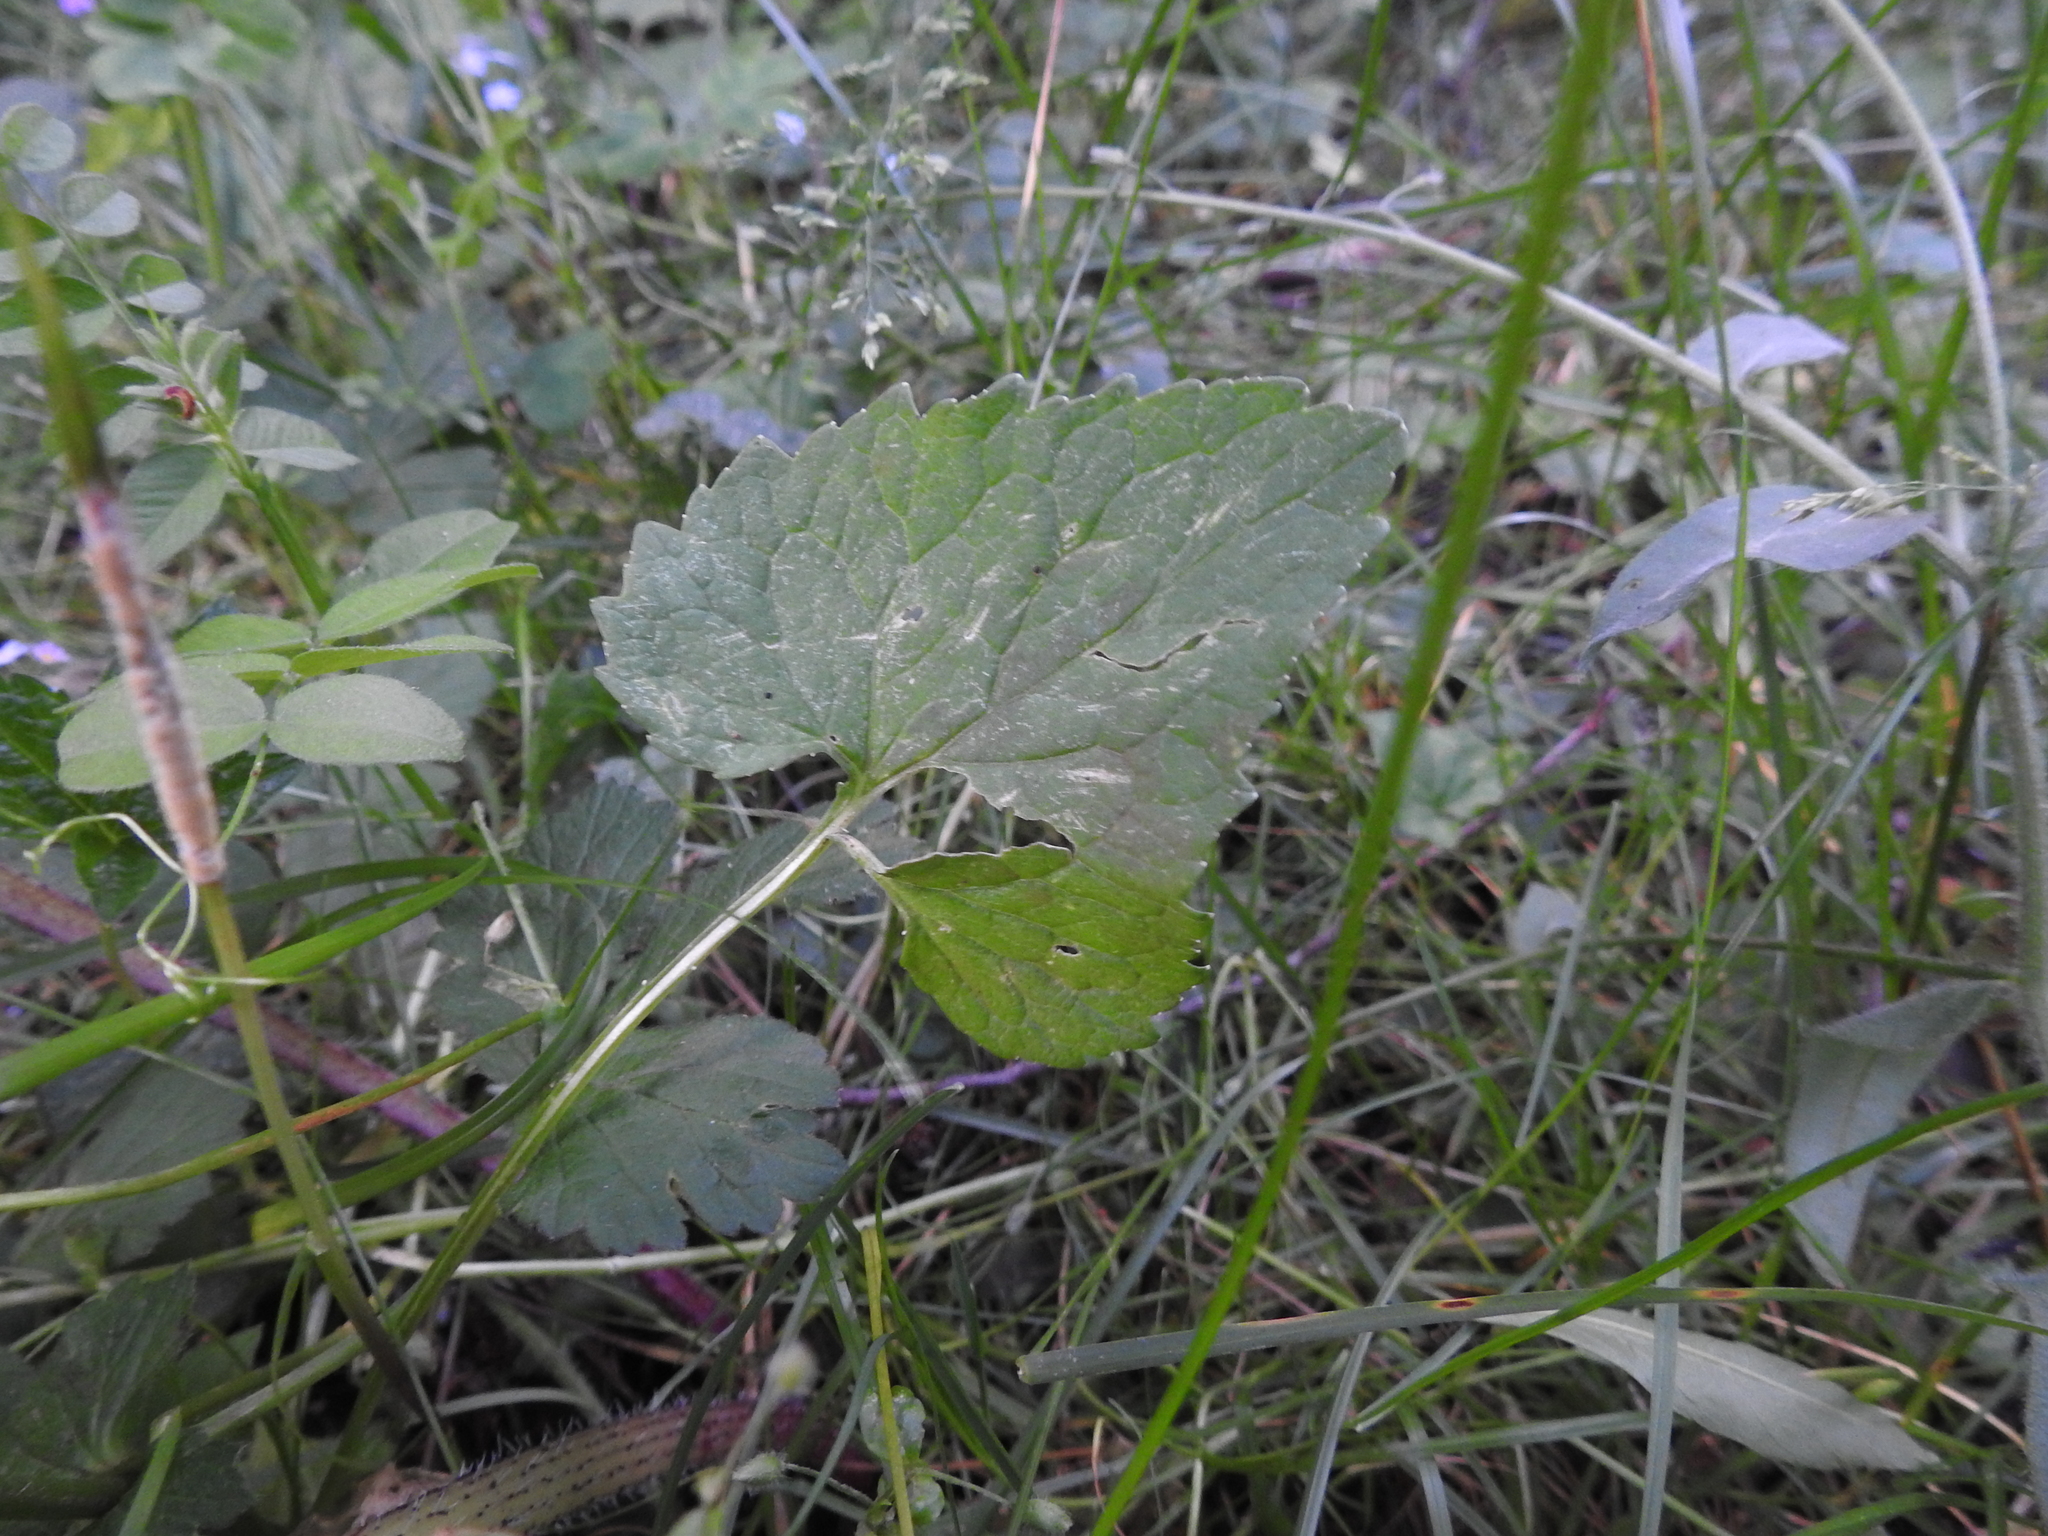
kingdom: Plantae
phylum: Tracheophyta
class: Magnoliopsida
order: Asterales
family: Campanulaceae
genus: Phyteuma
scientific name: Phyteuma spicatum
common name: Spiked rampion
